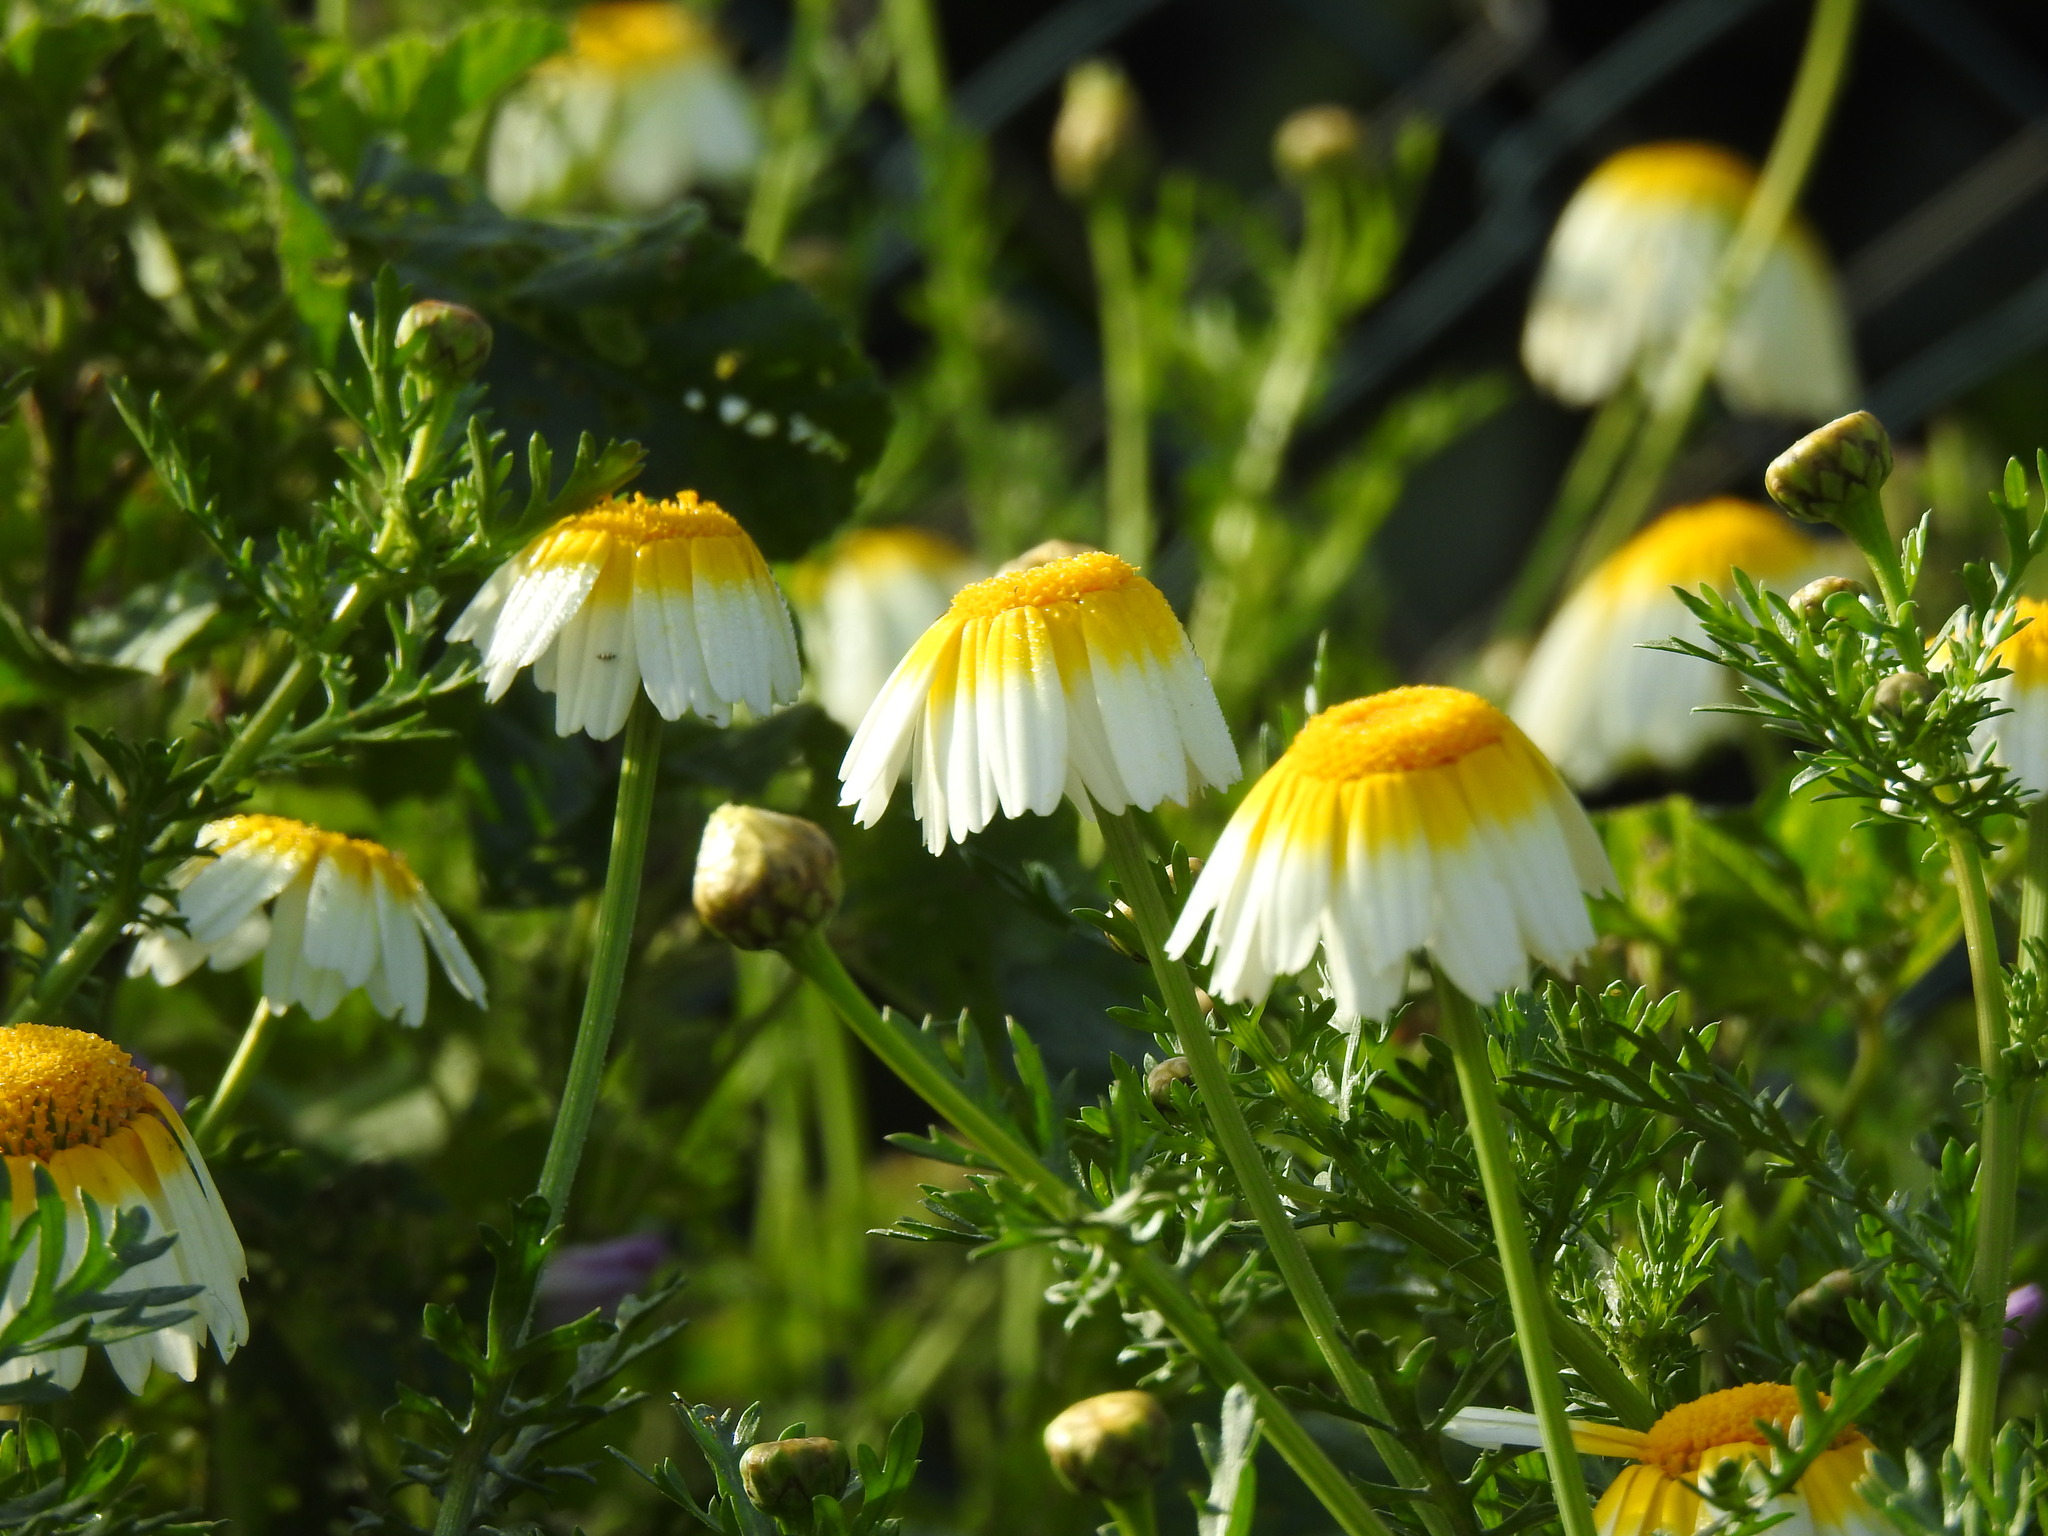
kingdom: Plantae
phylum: Tracheophyta
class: Magnoliopsida
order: Asterales
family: Asteraceae
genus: Glebionis
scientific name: Glebionis coronaria
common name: Crowndaisy
